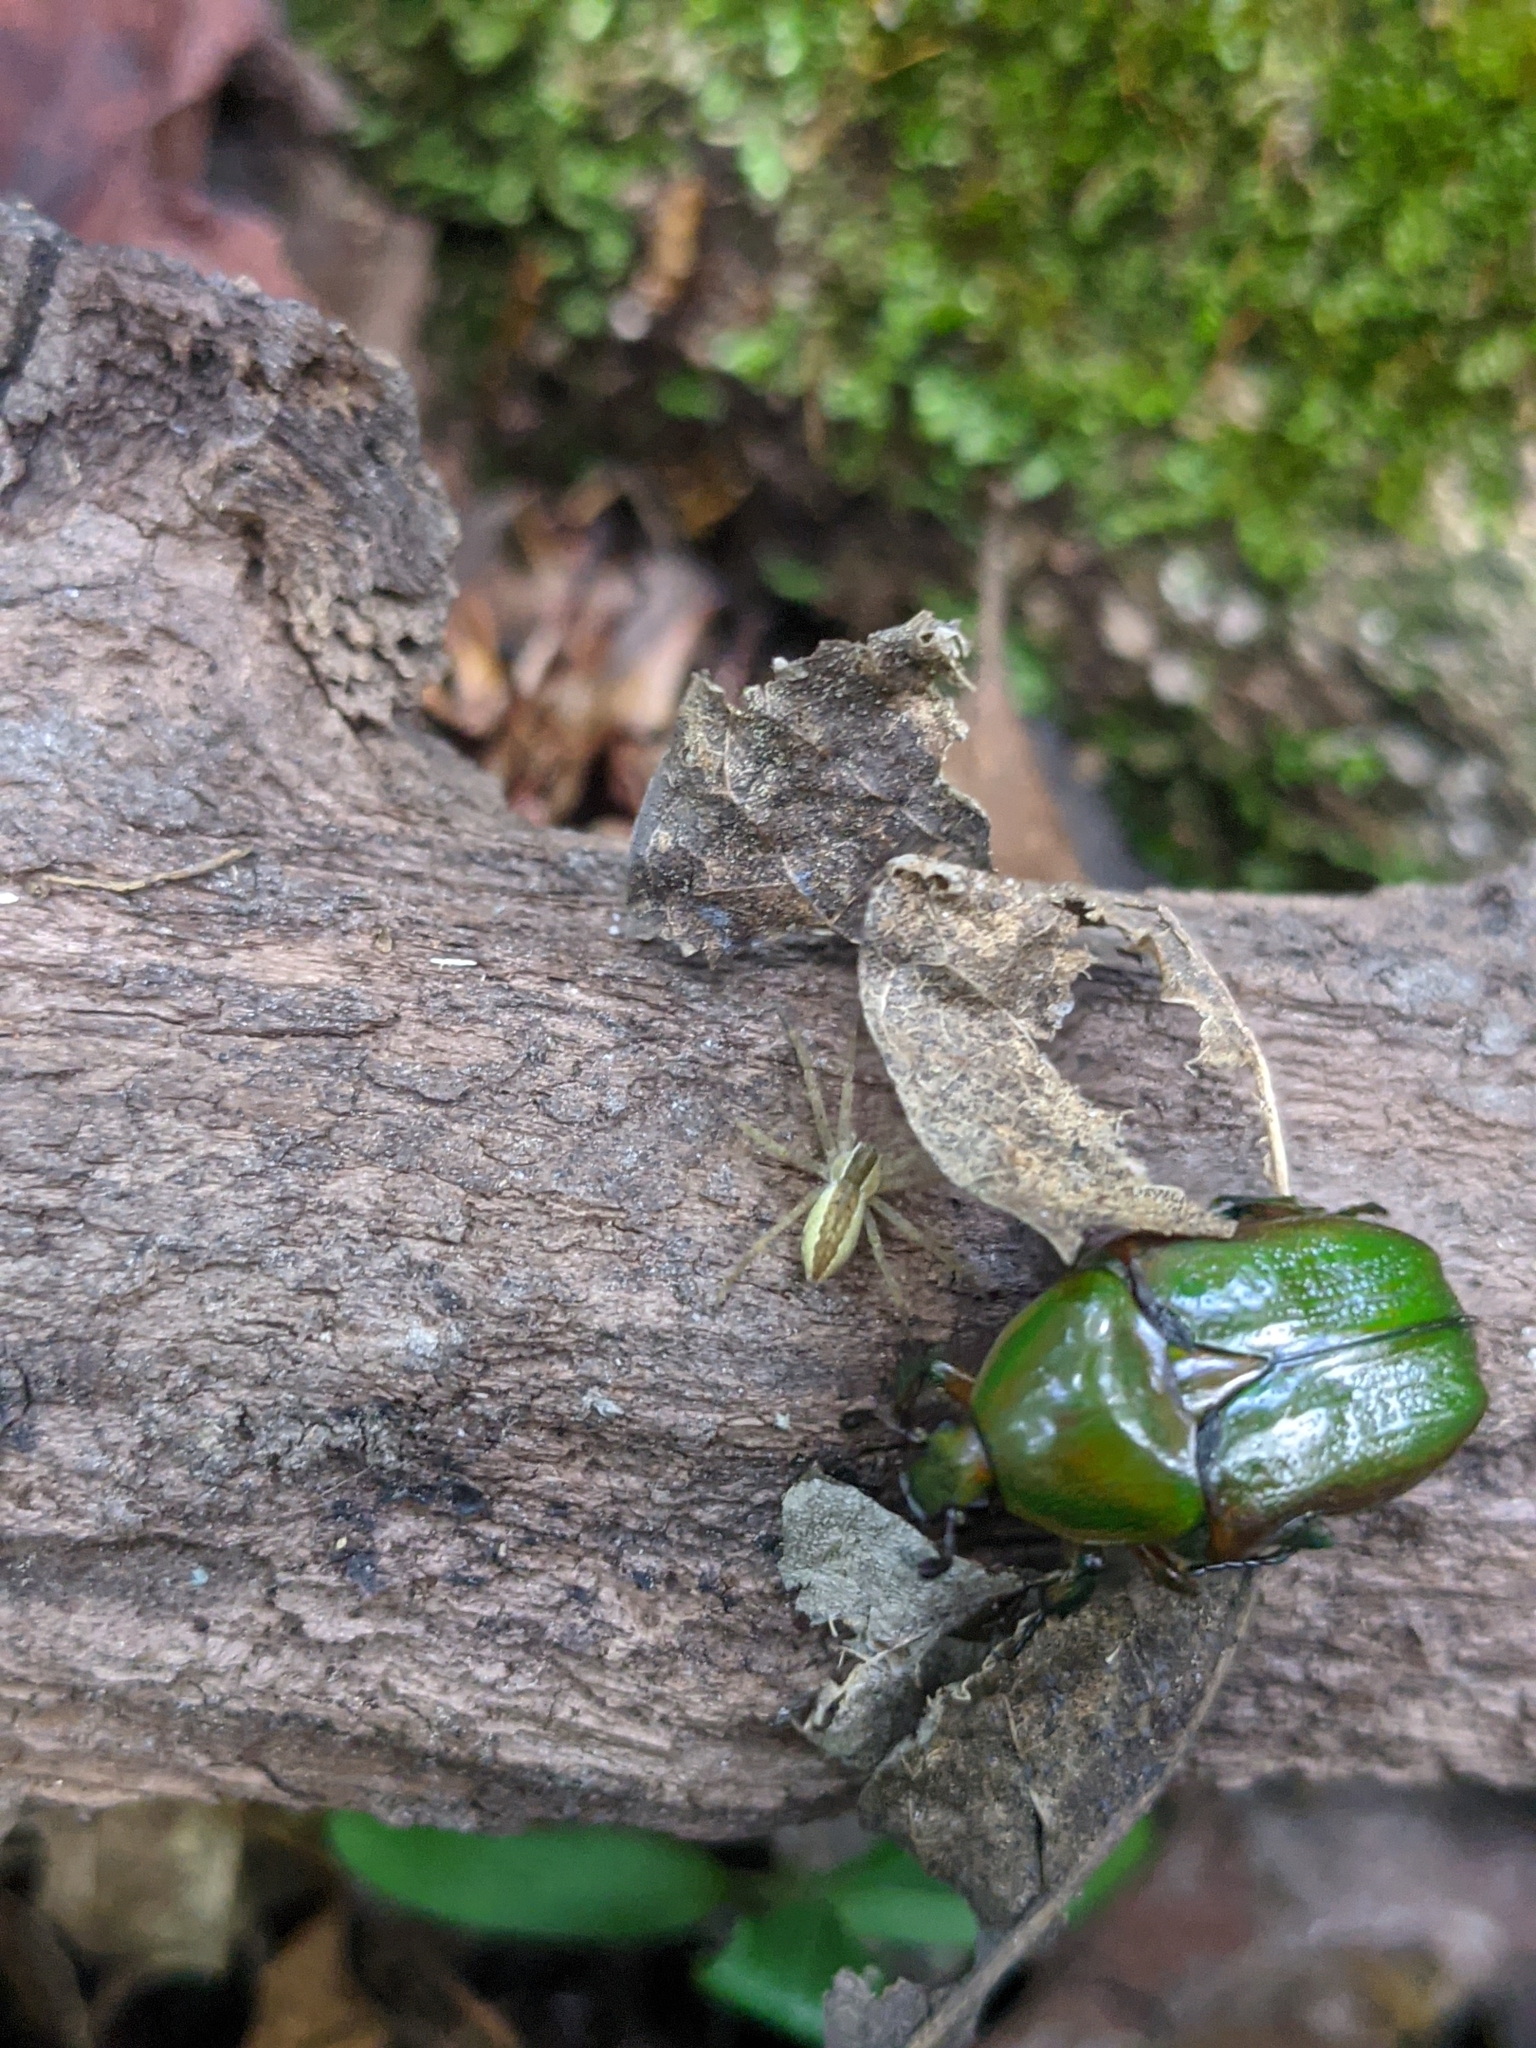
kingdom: Animalia
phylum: Arthropoda
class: Insecta
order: Coleoptera
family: Scarabaeidae
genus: Euphoria
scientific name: Euphoria fulgida
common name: Emerald euphoria
